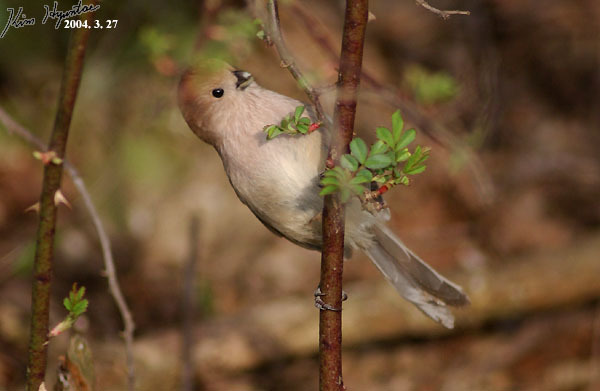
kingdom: Animalia
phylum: Chordata
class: Aves
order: Passeriformes
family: Sylviidae
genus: Sinosuthora
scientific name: Sinosuthora webbiana
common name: Vinous-throated parrotbill
